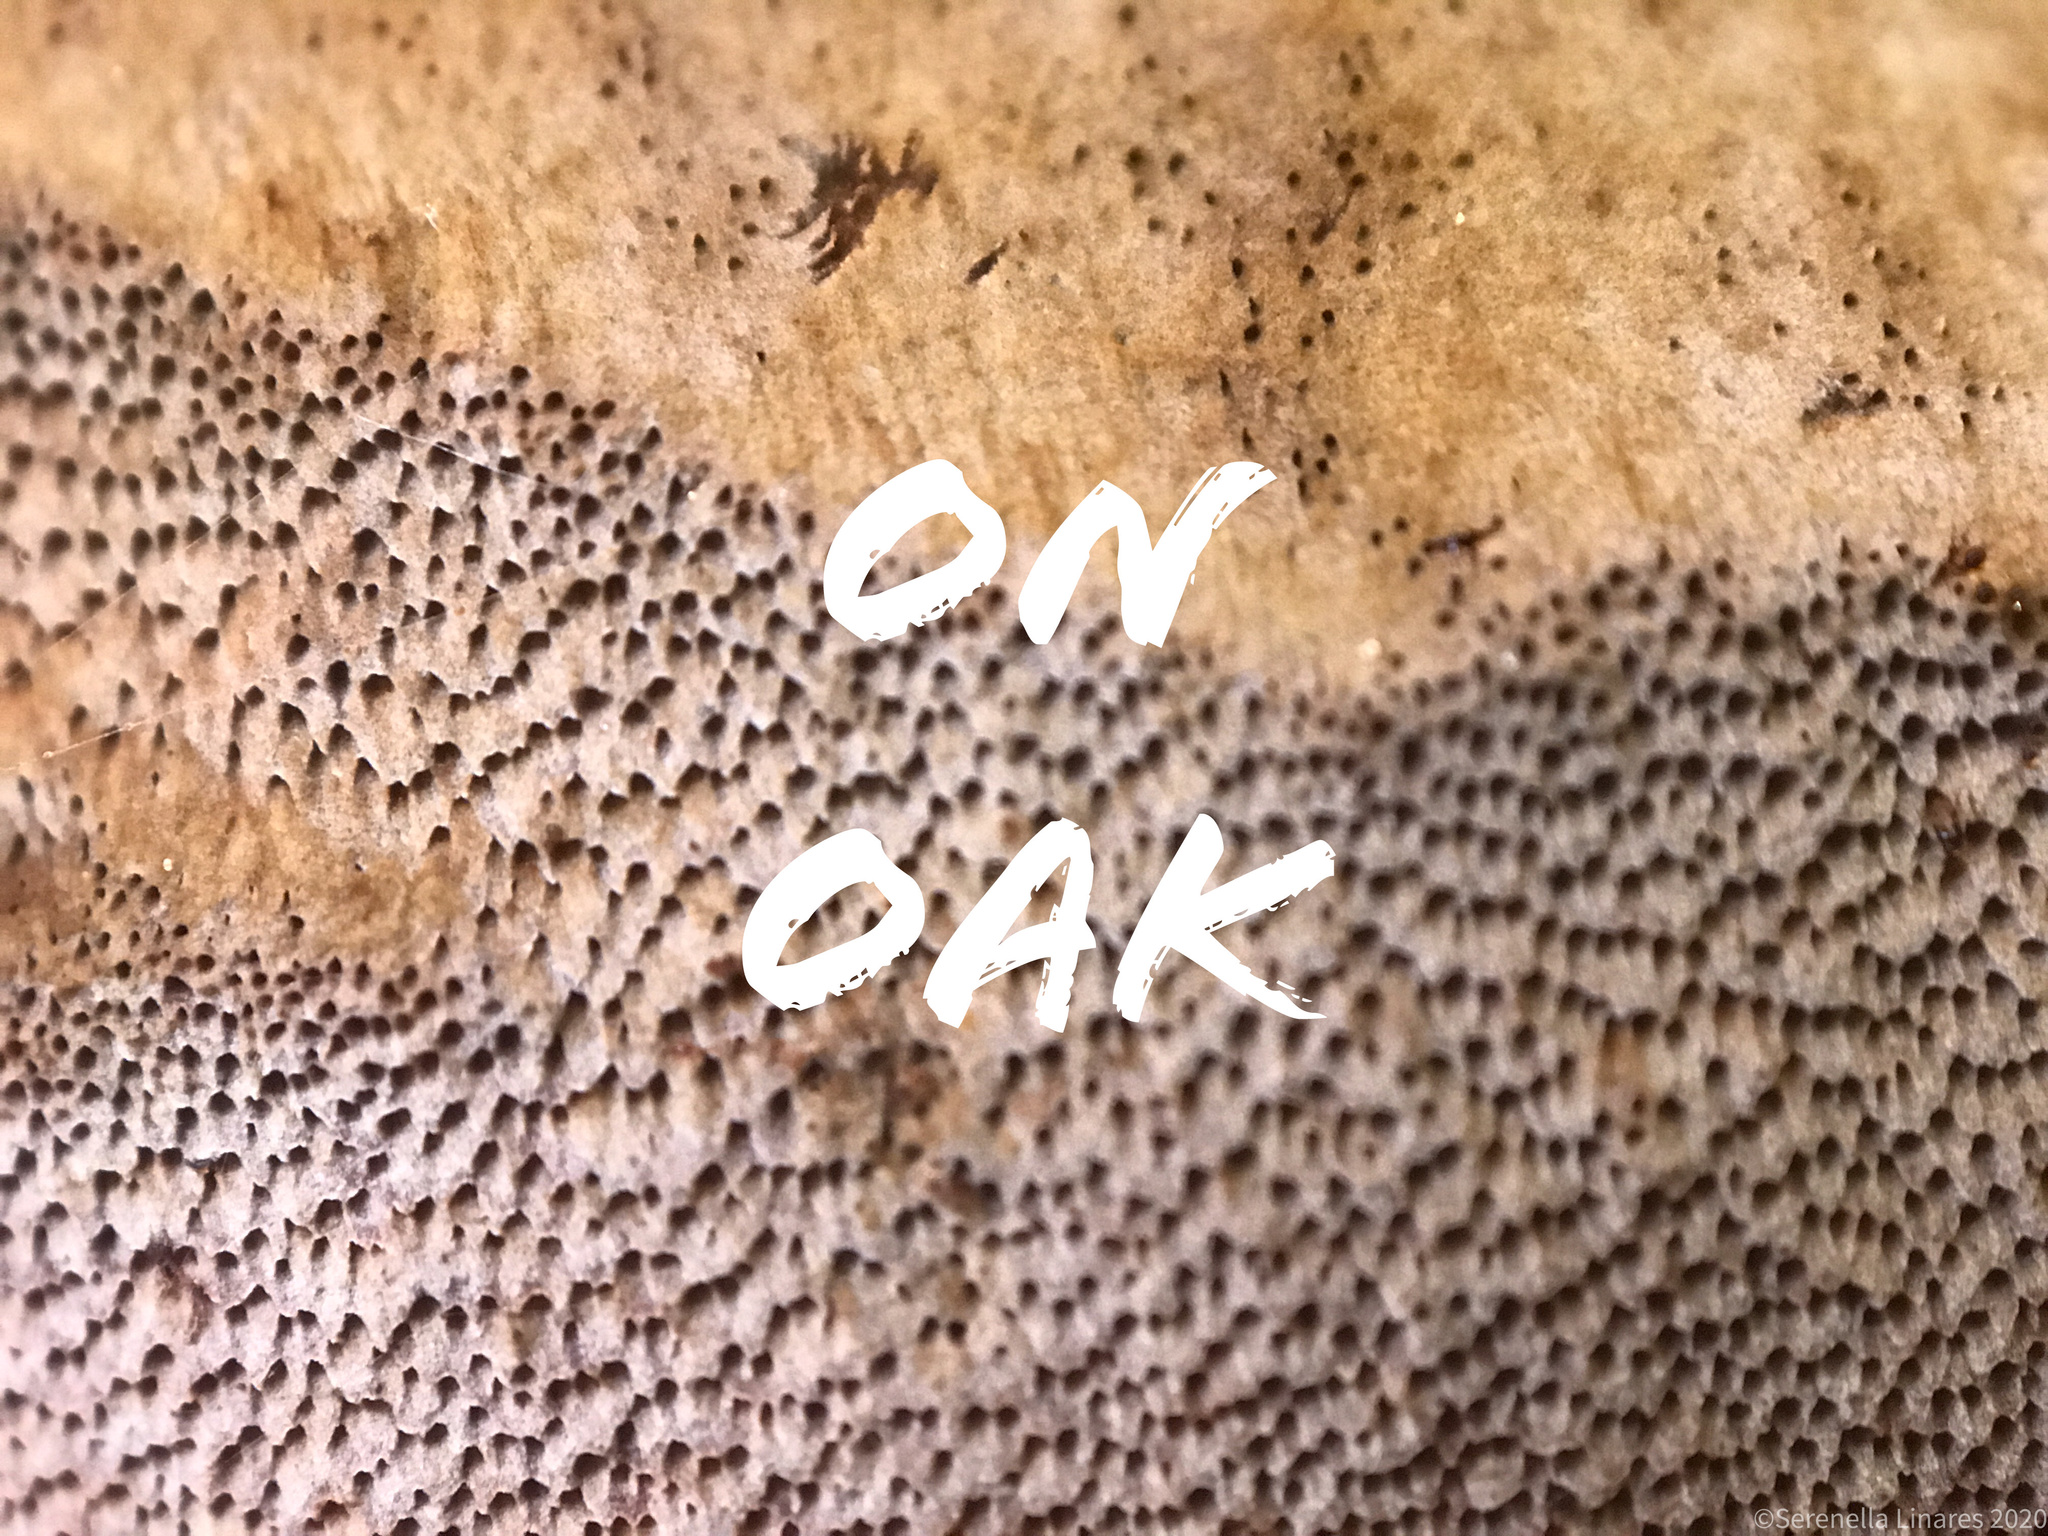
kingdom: Fungi
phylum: Basidiomycota
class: Agaricomycetes
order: Hymenochaetales
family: Hymenochaetaceae
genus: Meganotus
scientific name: Meganotus everhartii
